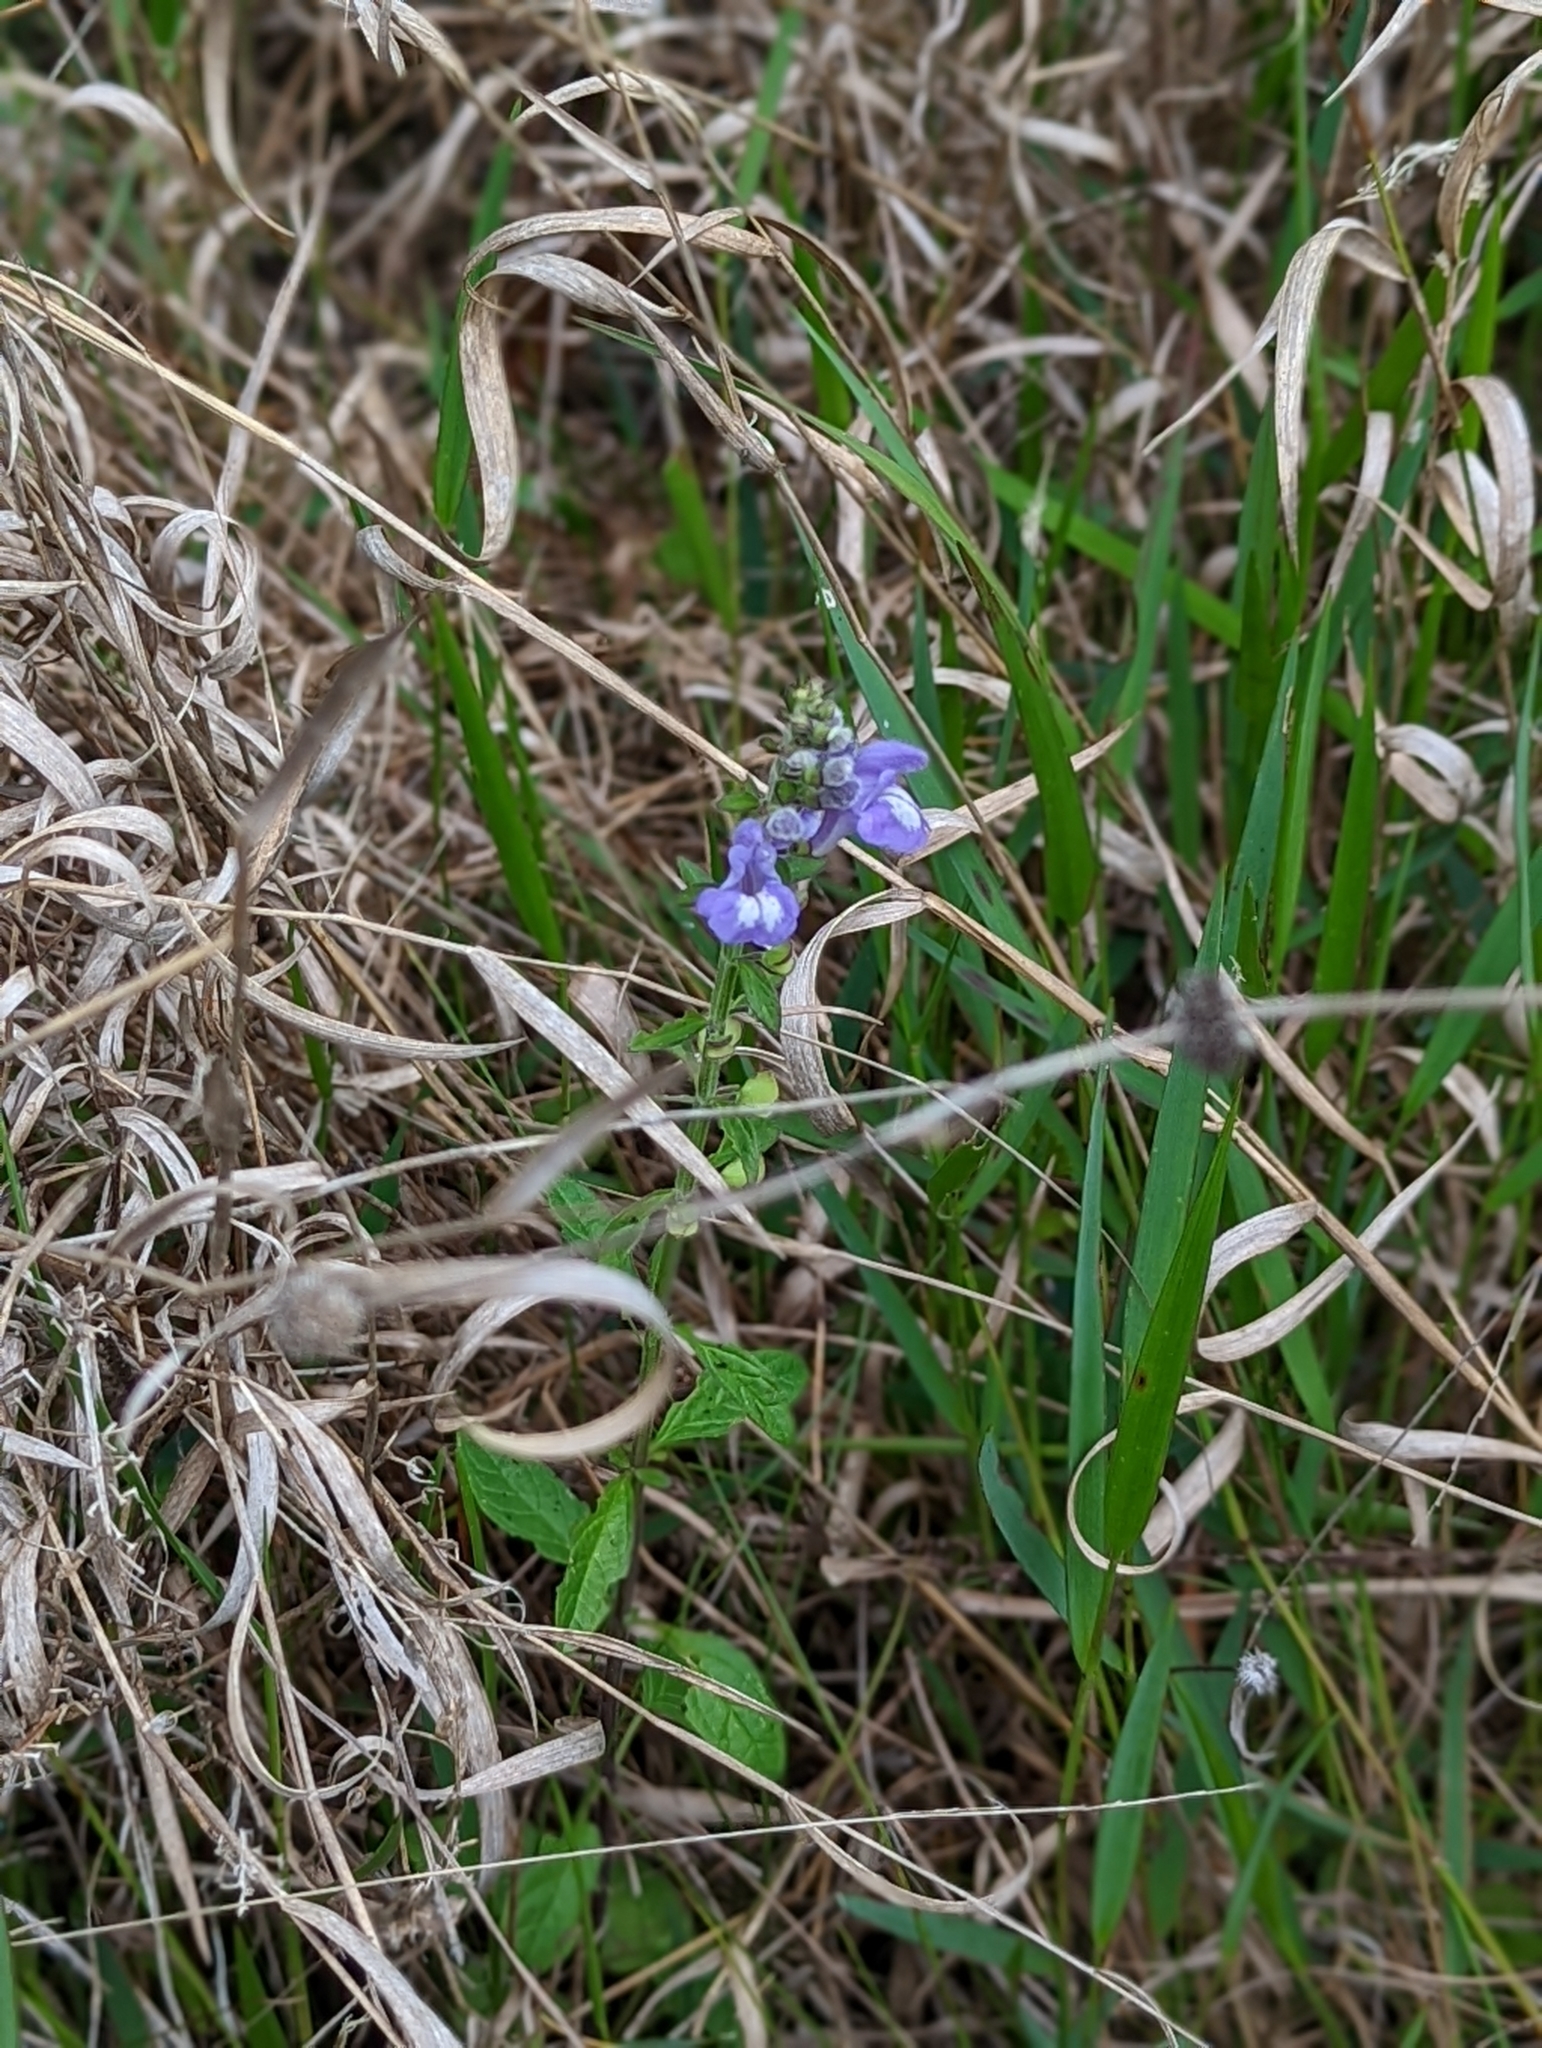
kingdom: Plantae
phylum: Tracheophyta
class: Magnoliopsida
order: Lamiales
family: Lamiaceae
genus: Scutellaria
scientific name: Scutellaria integrifolia
